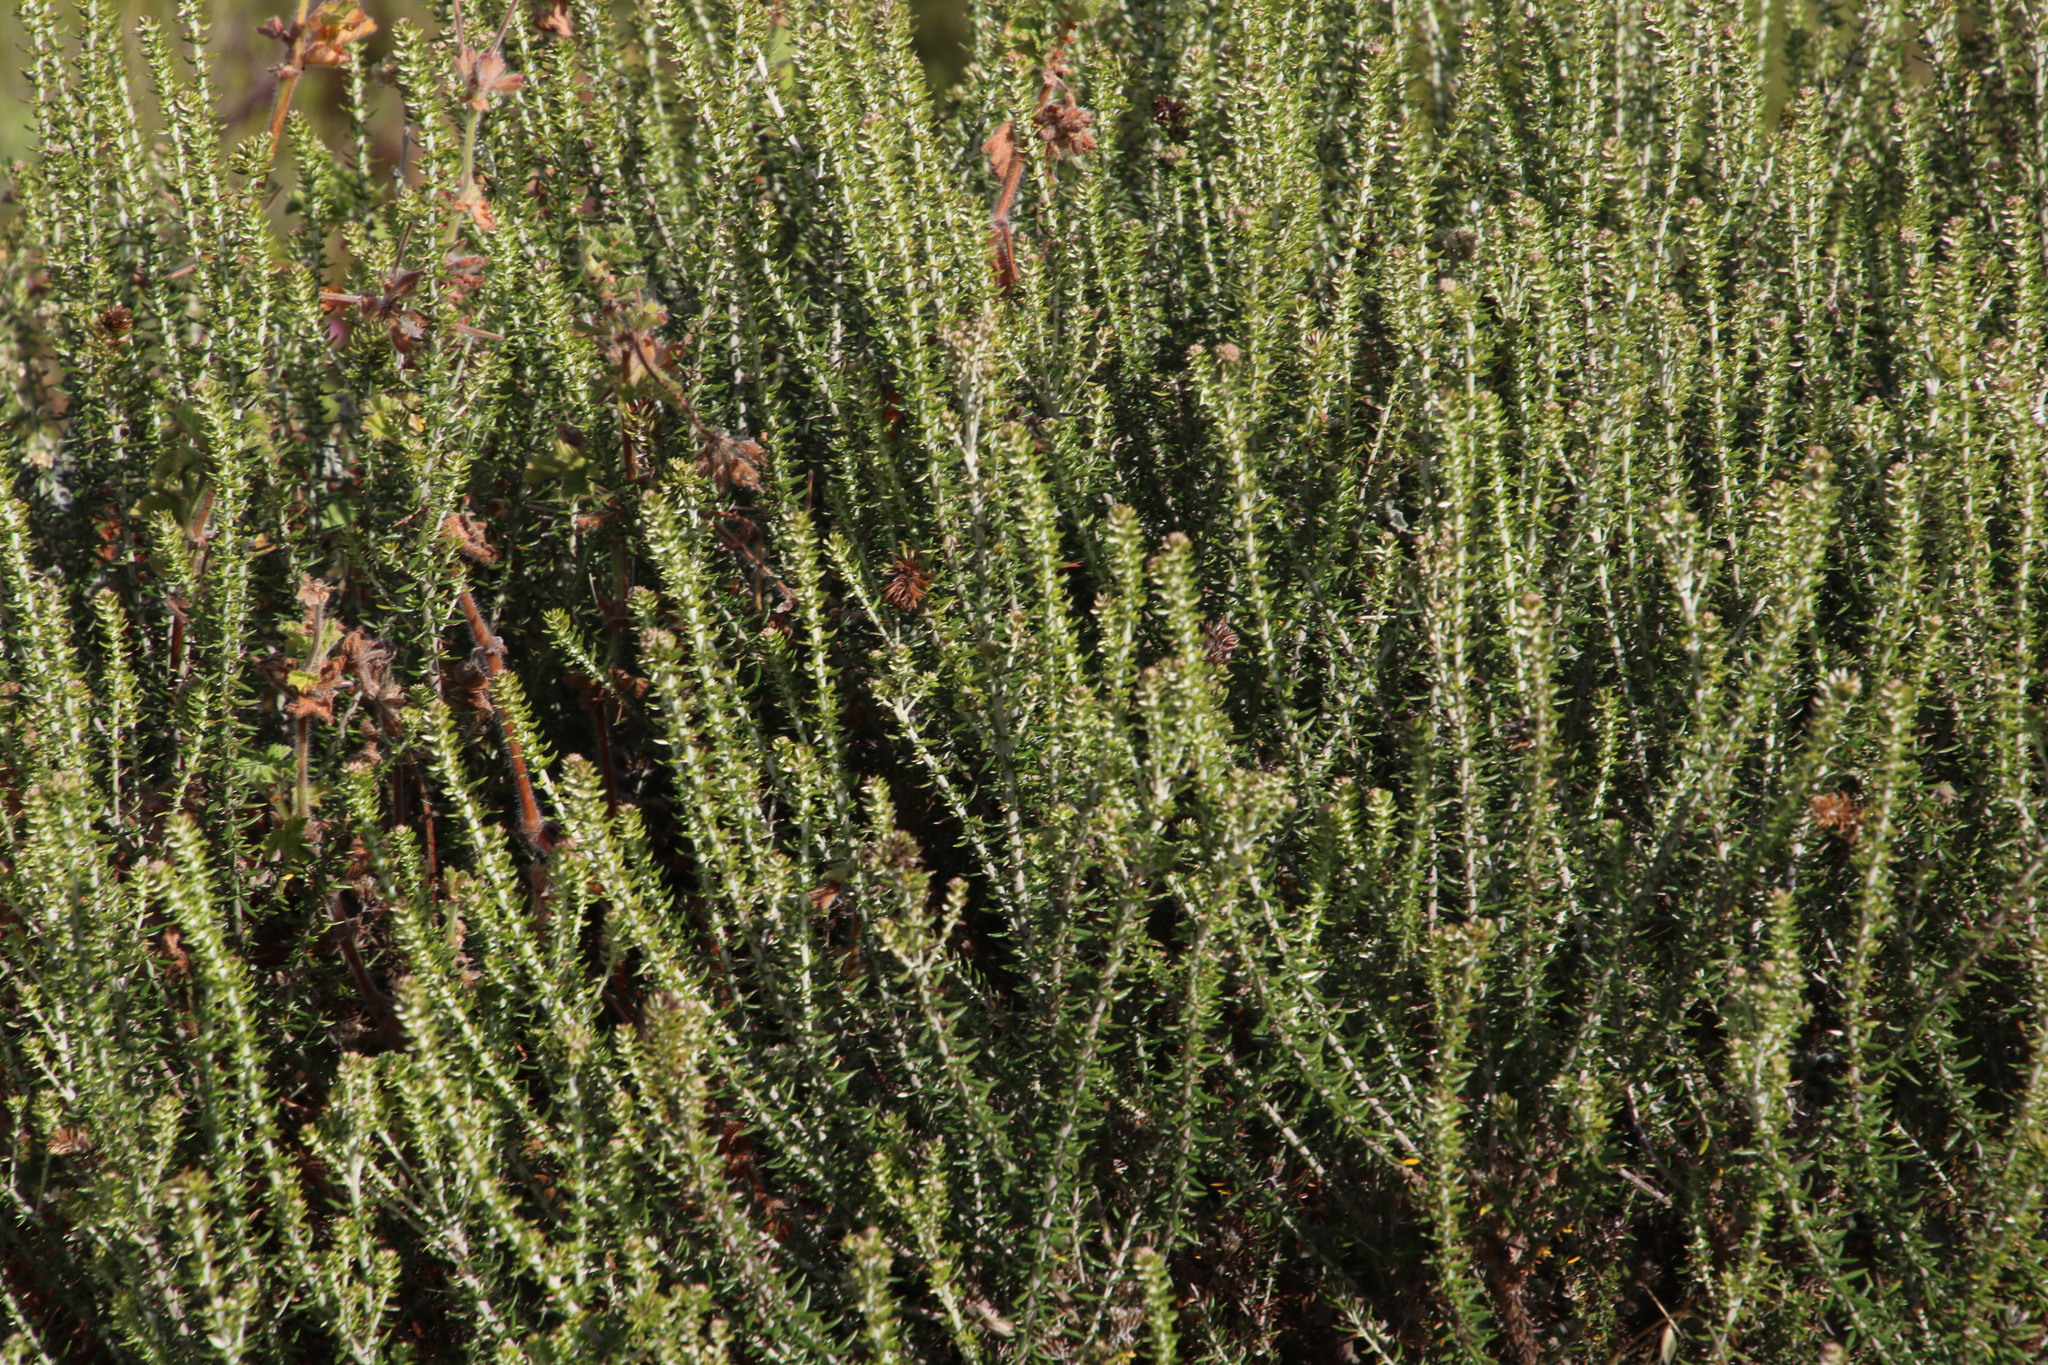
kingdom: Plantae
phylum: Tracheophyta
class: Magnoliopsida
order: Asterales
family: Asteraceae
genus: Metalasia
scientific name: Metalasia densa
